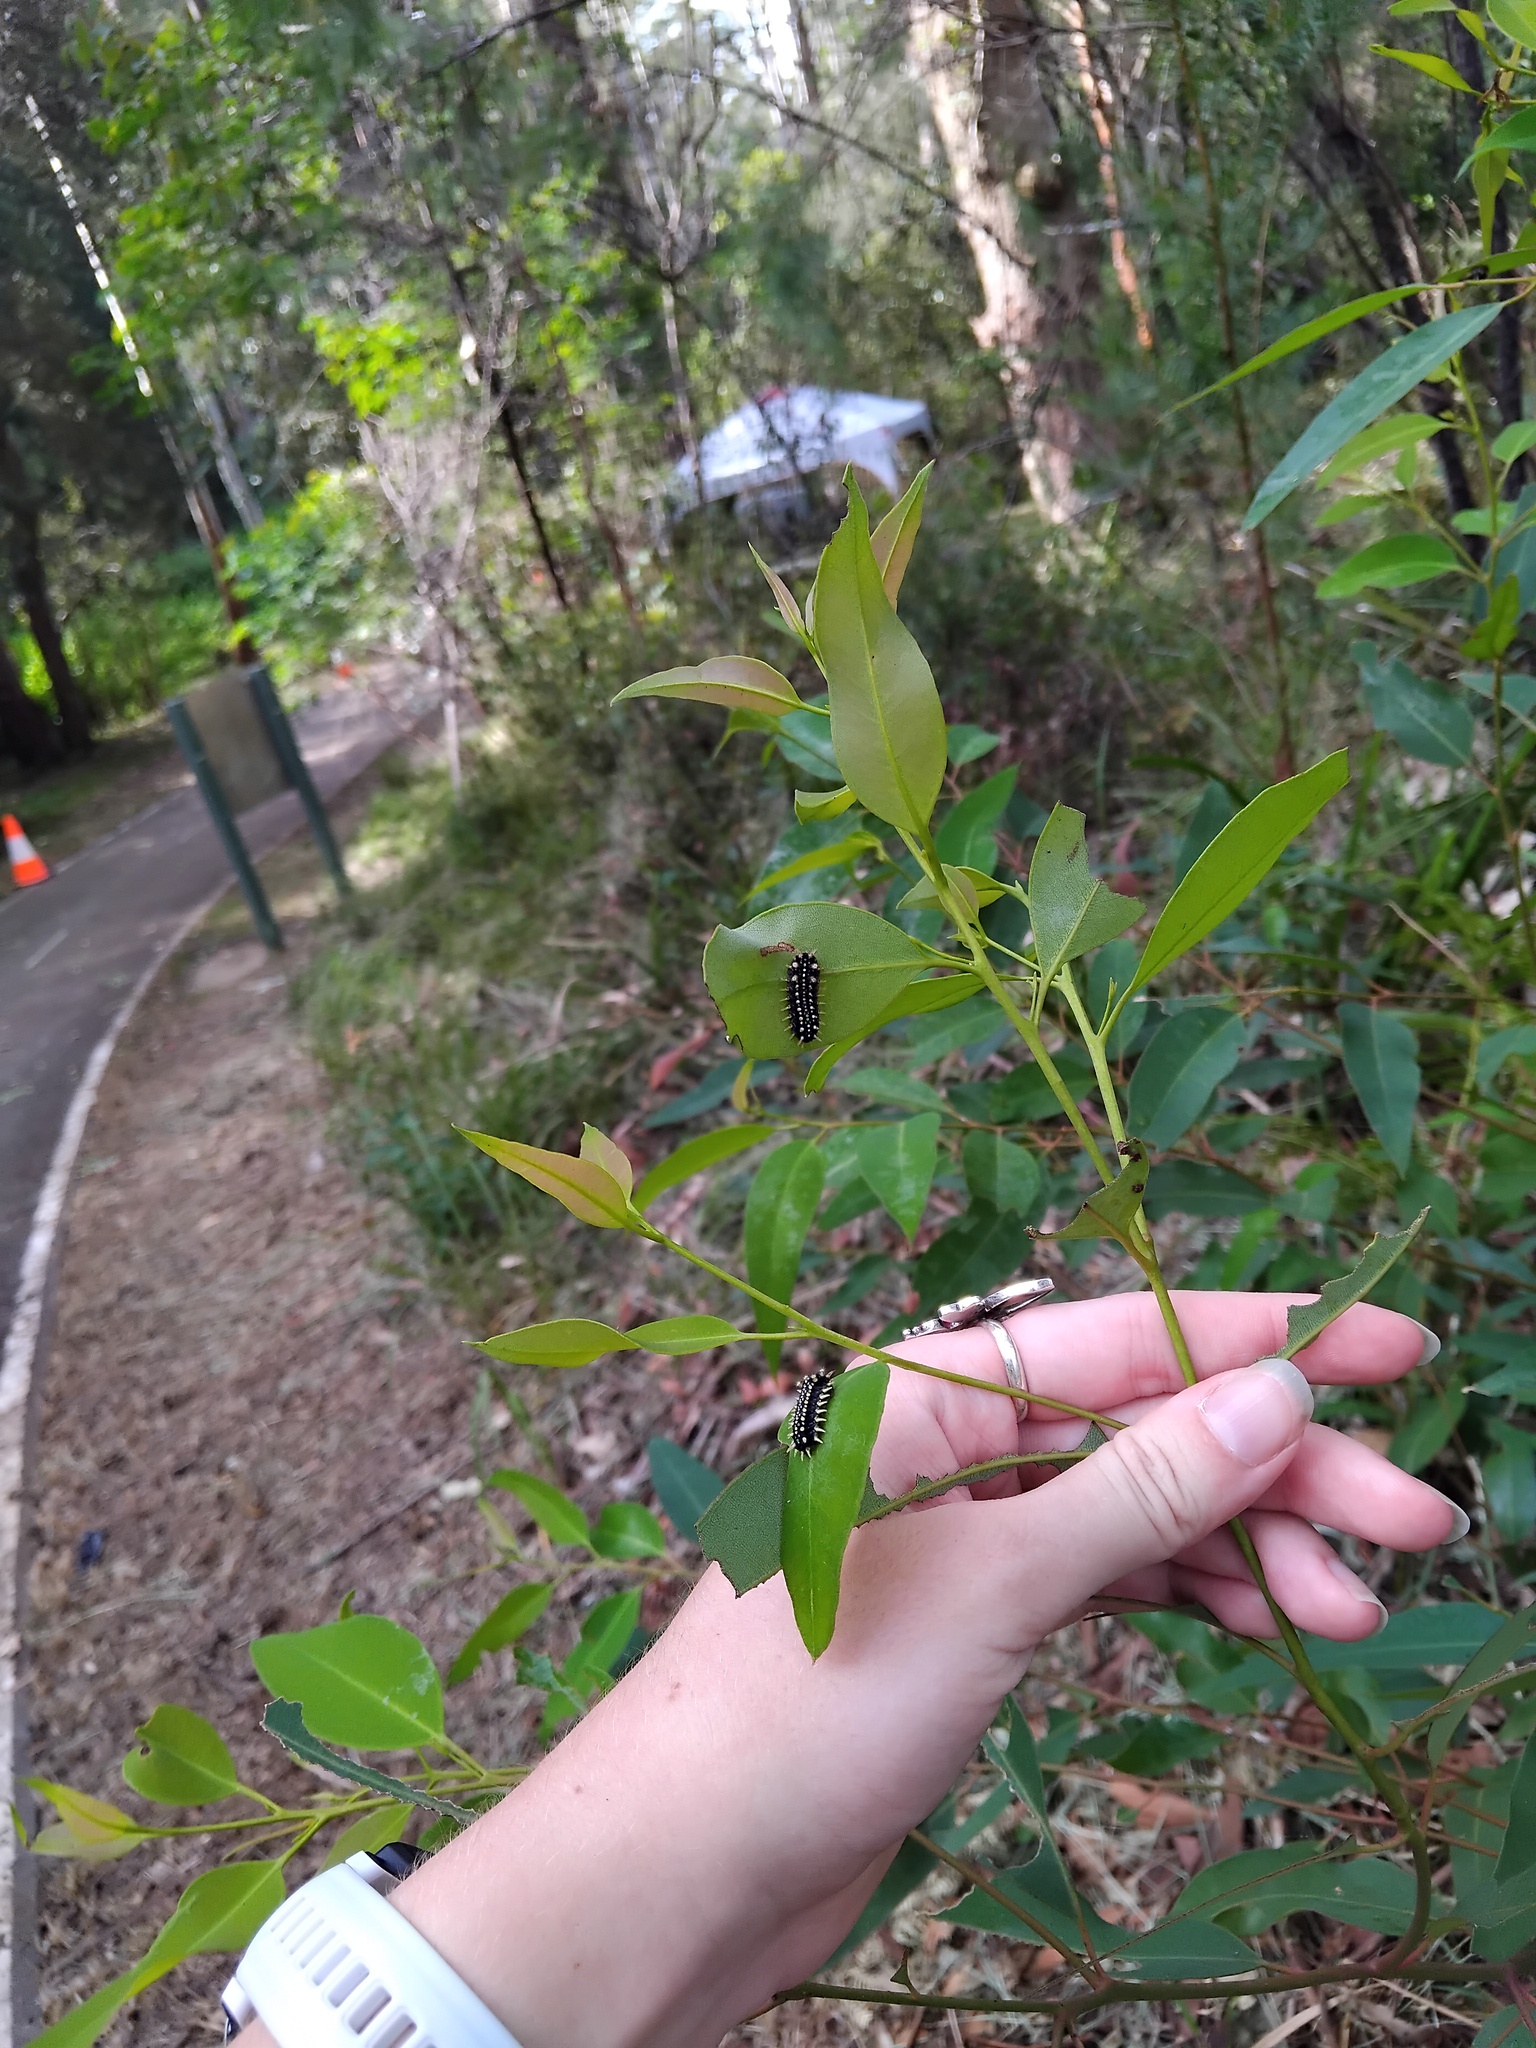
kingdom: Animalia
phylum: Arthropoda
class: Insecta
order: Lepidoptera
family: Limacodidae
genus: Doratifera
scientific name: Doratifera casta
